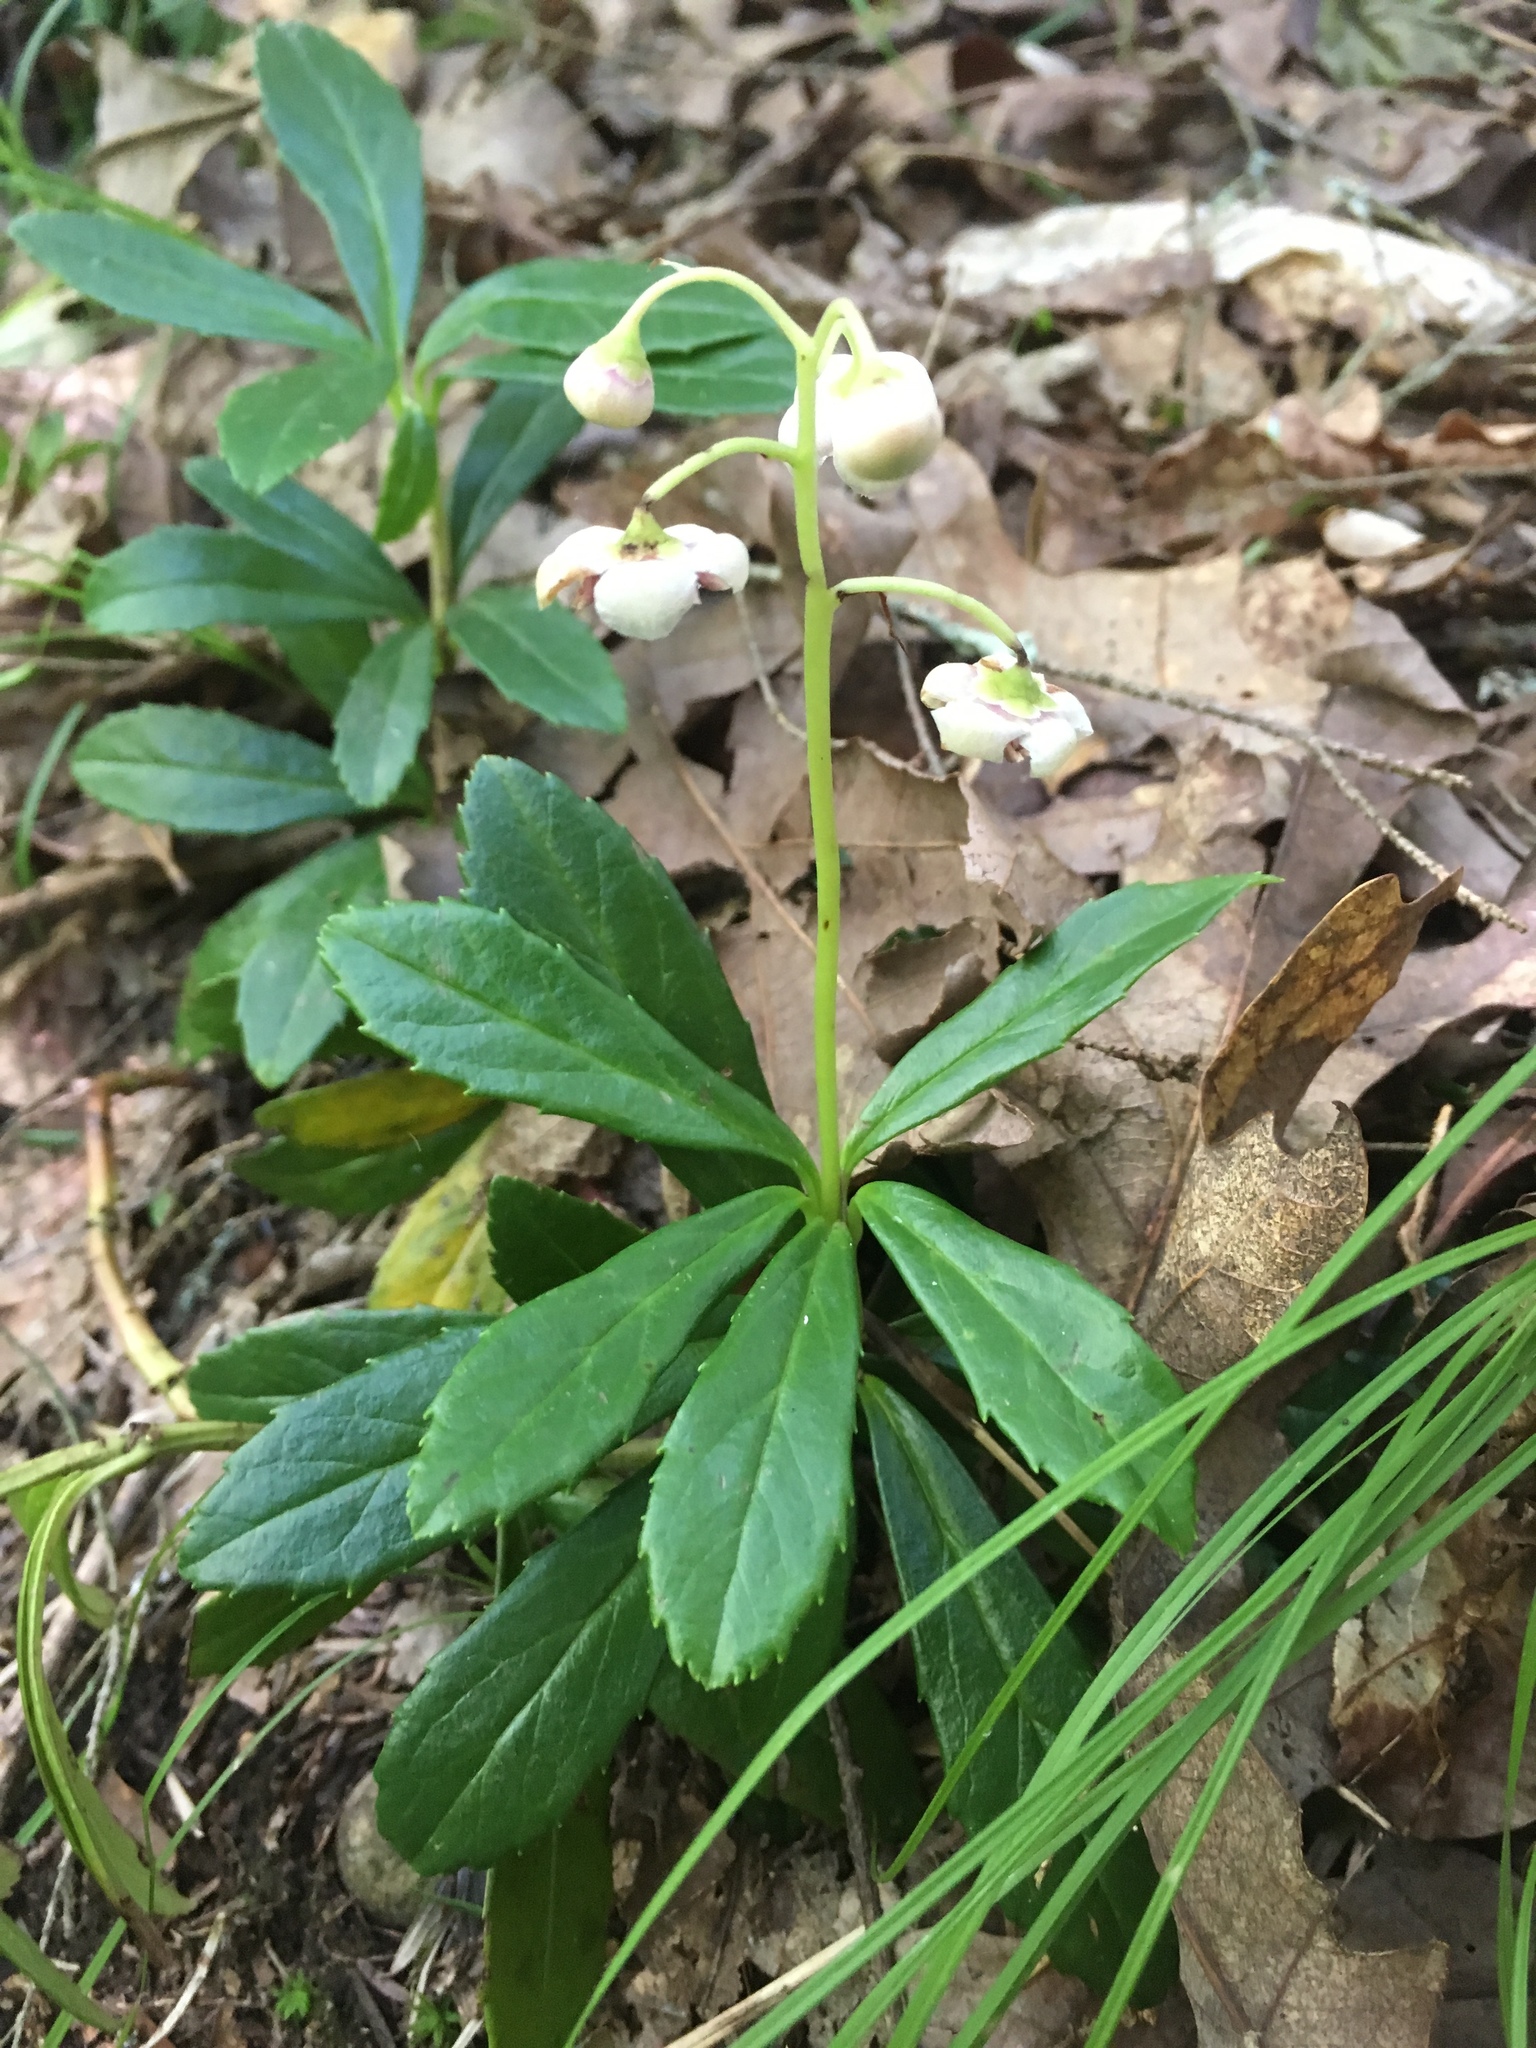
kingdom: Plantae
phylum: Tracheophyta
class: Magnoliopsida
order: Ericales
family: Ericaceae
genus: Chimaphila
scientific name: Chimaphila umbellata
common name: Pipsissewa
